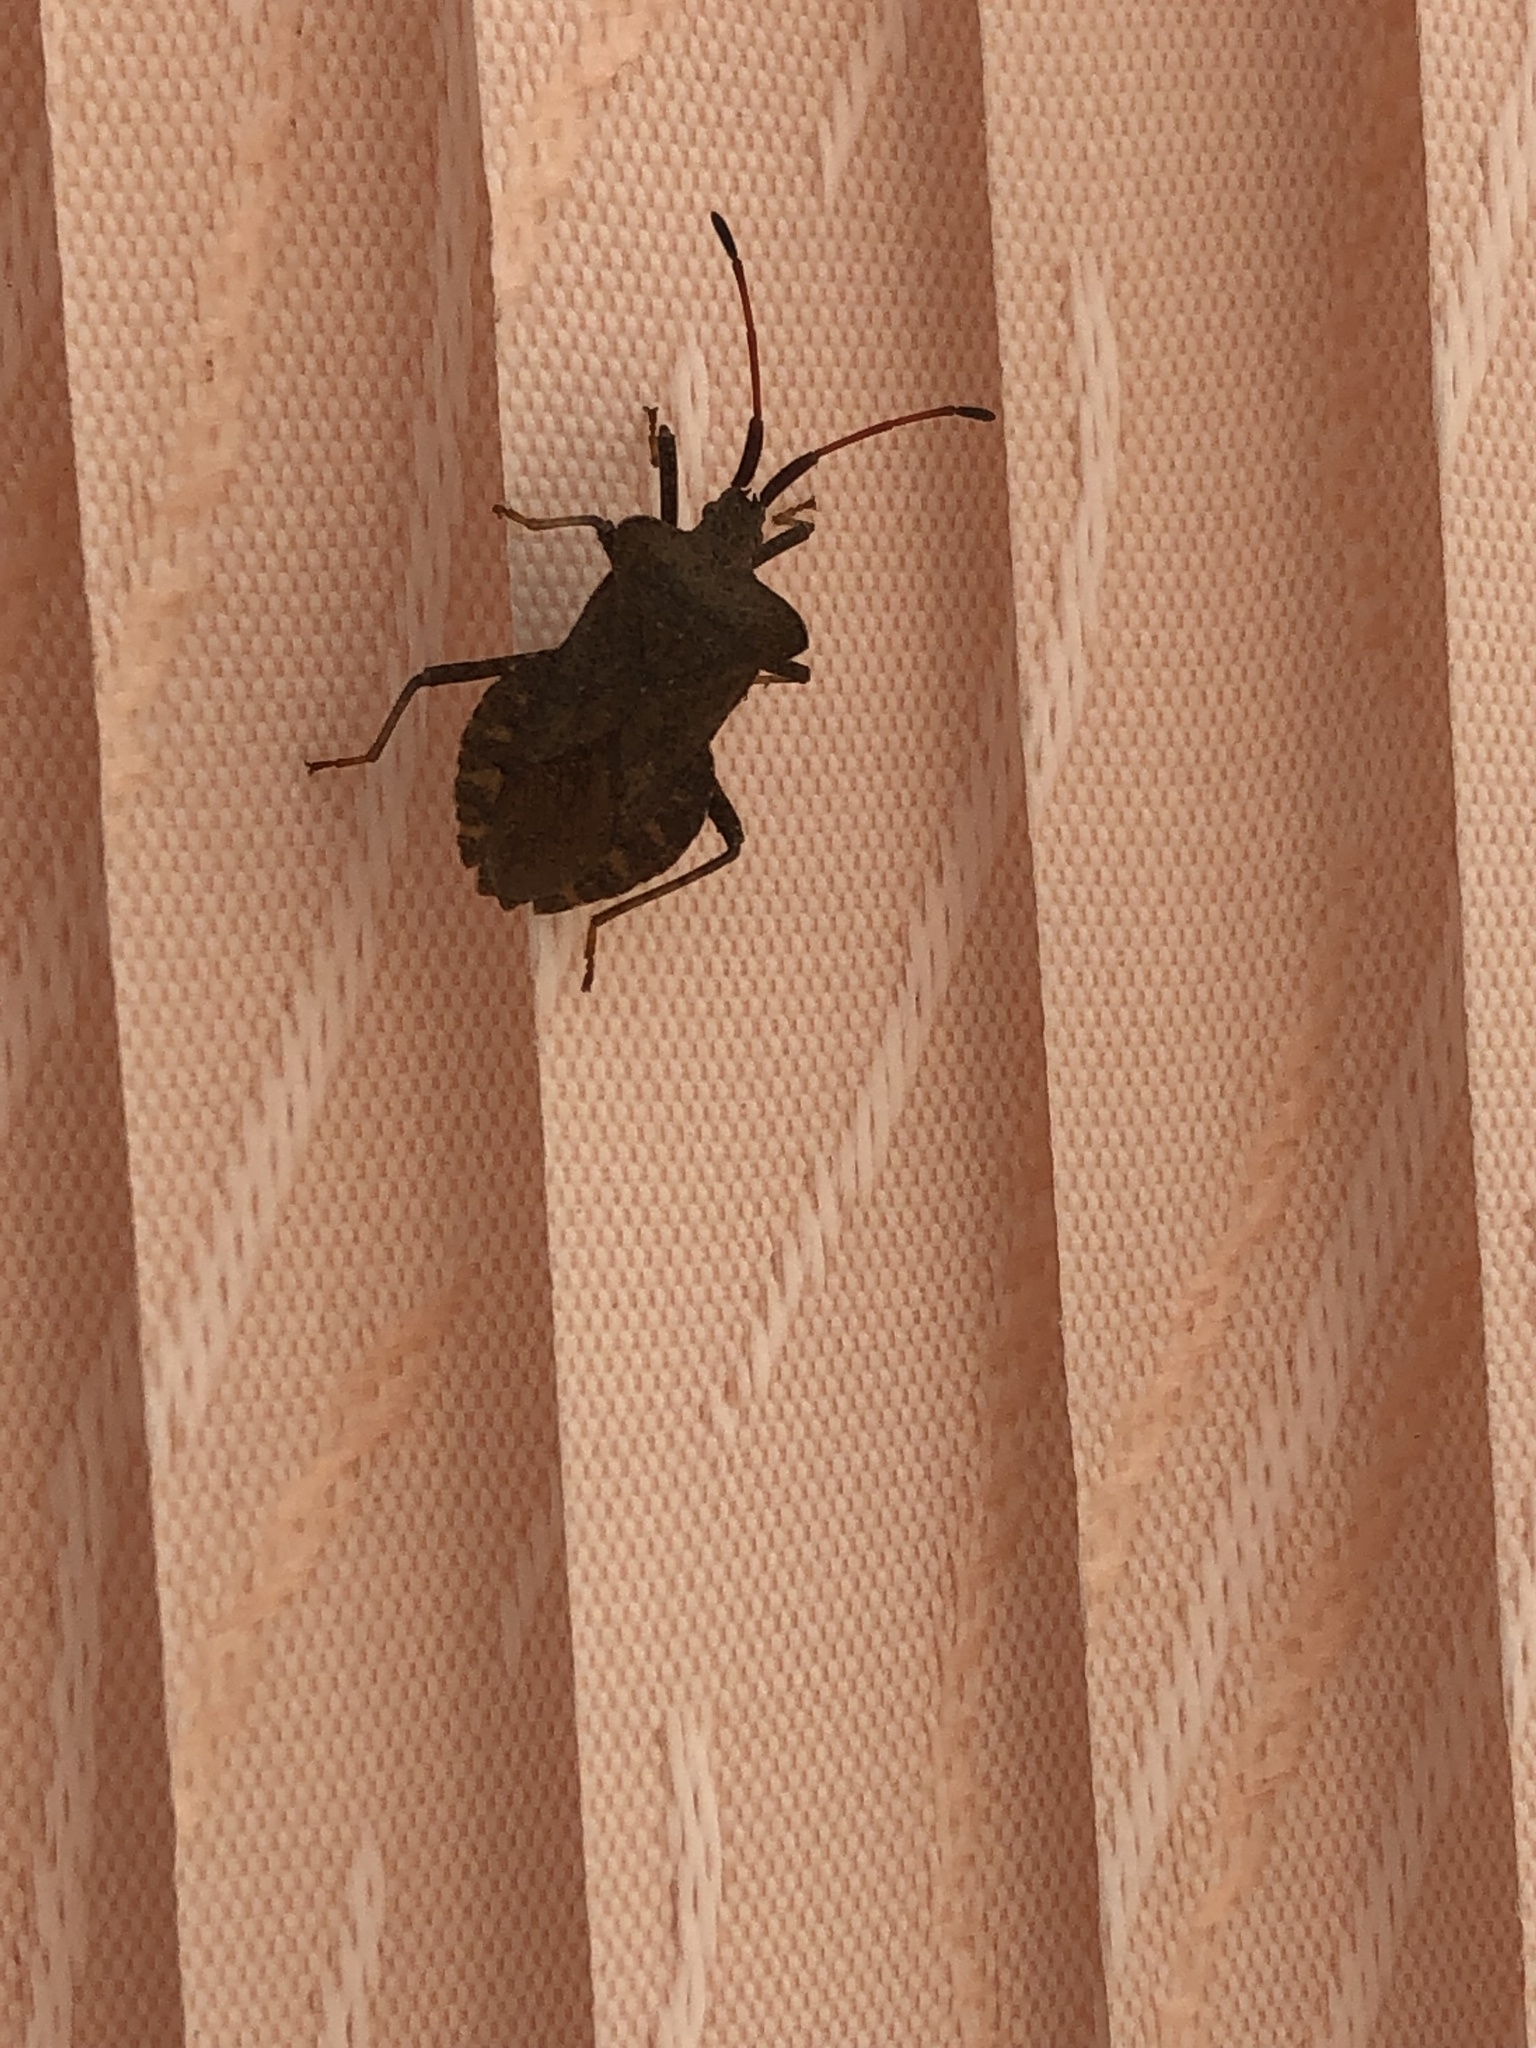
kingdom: Animalia
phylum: Arthropoda
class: Insecta
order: Hemiptera
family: Coreidae
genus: Coreus
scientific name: Coreus marginatus
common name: Dock bug
